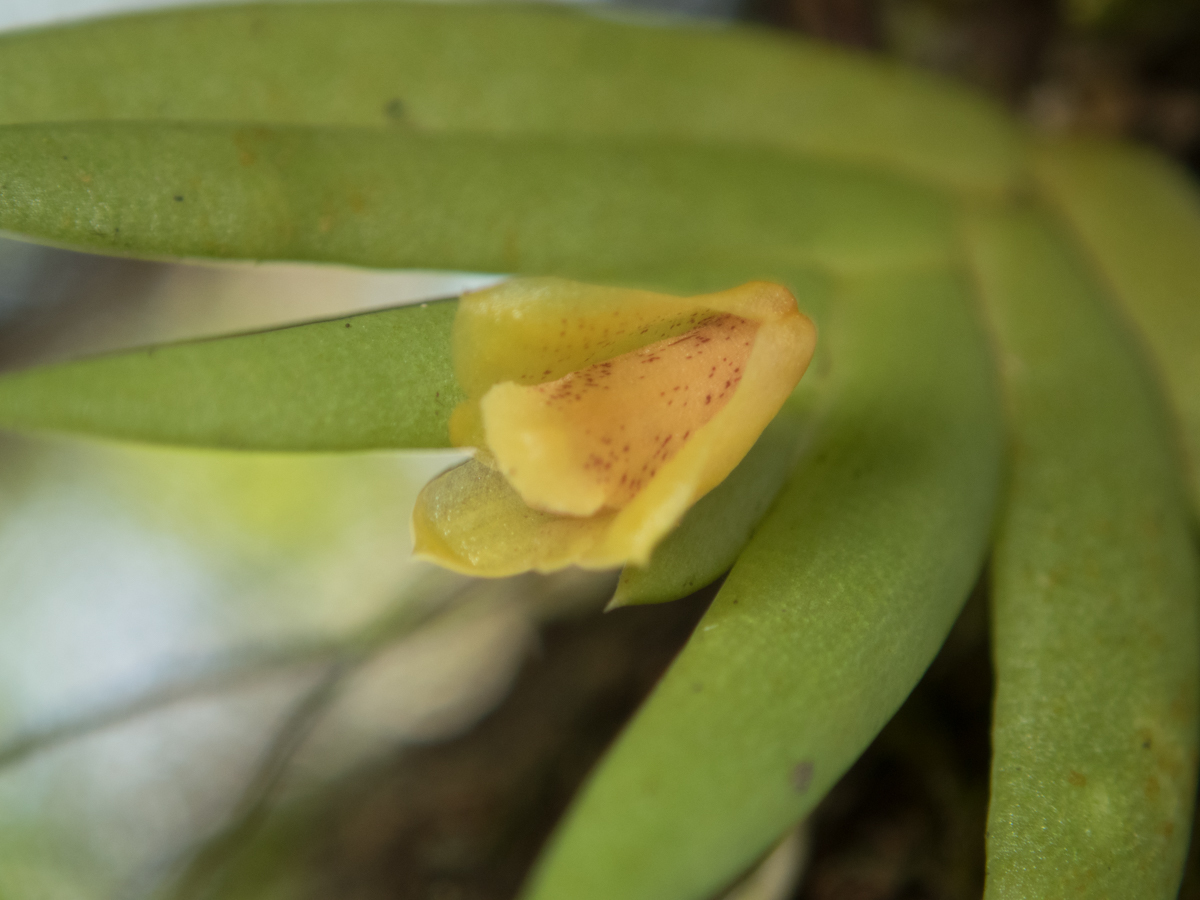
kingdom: Plantae
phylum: Tracheophyta
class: Liliopsida
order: Asparagales
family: Orchidaceae
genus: Oxystophyllum
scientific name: Oxystophyllum carnosum
